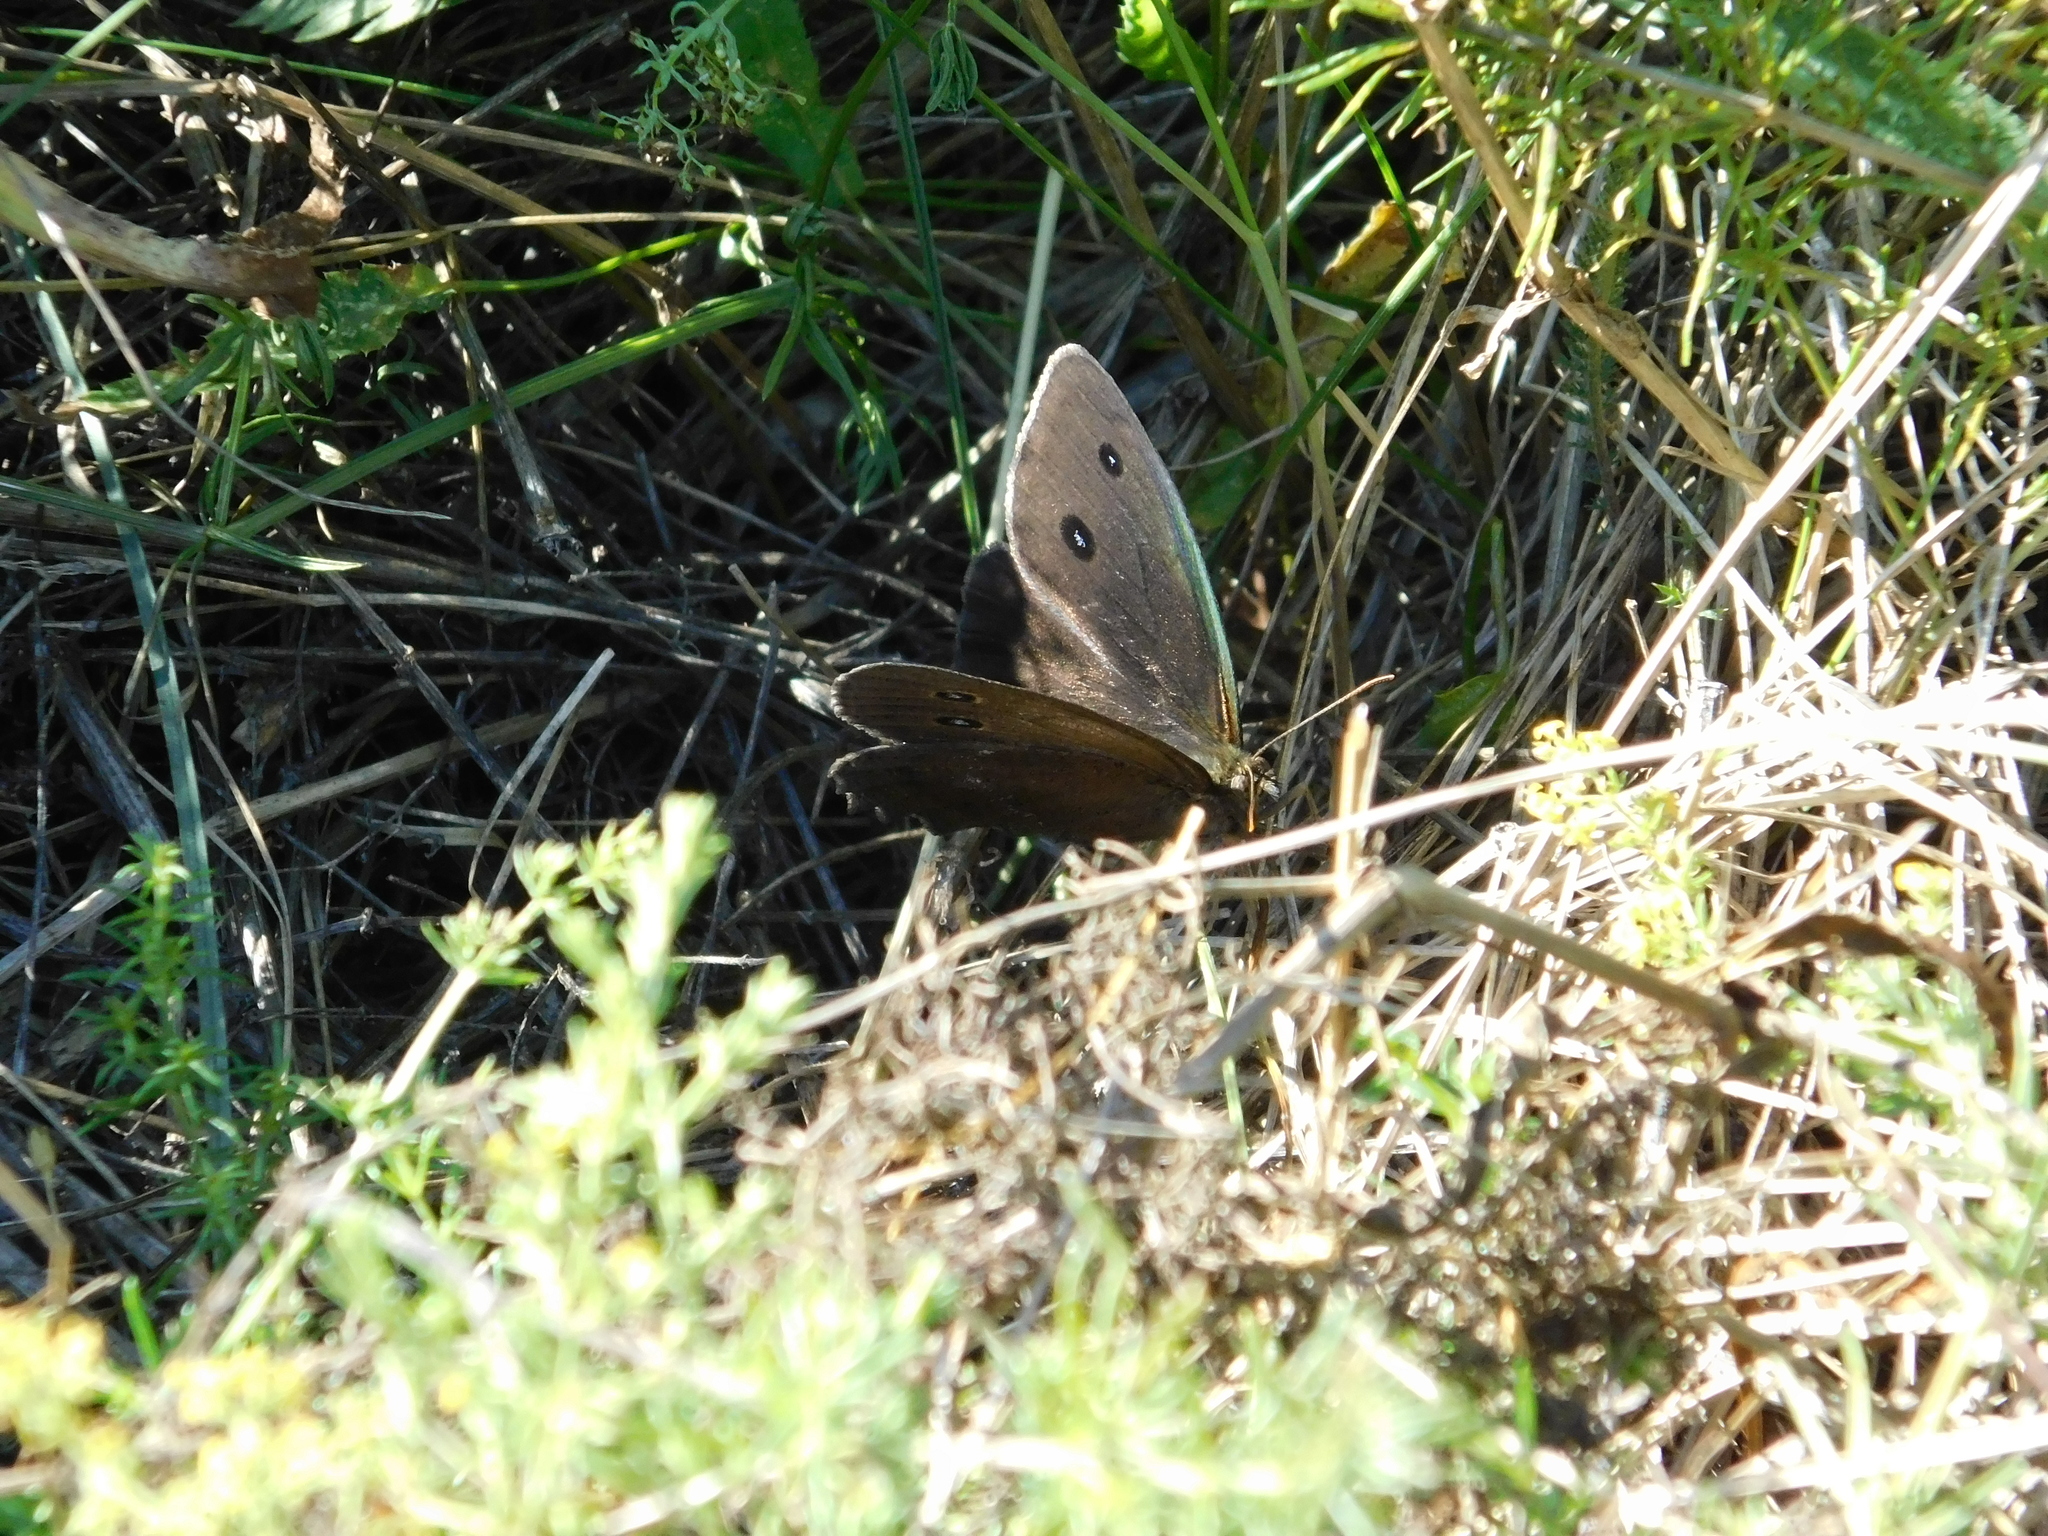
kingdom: Animalia
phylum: Arthropoda
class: Insecta
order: Lepidoptera
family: Nymphalidae
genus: Minois
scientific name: Minois dryas
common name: Dryad
